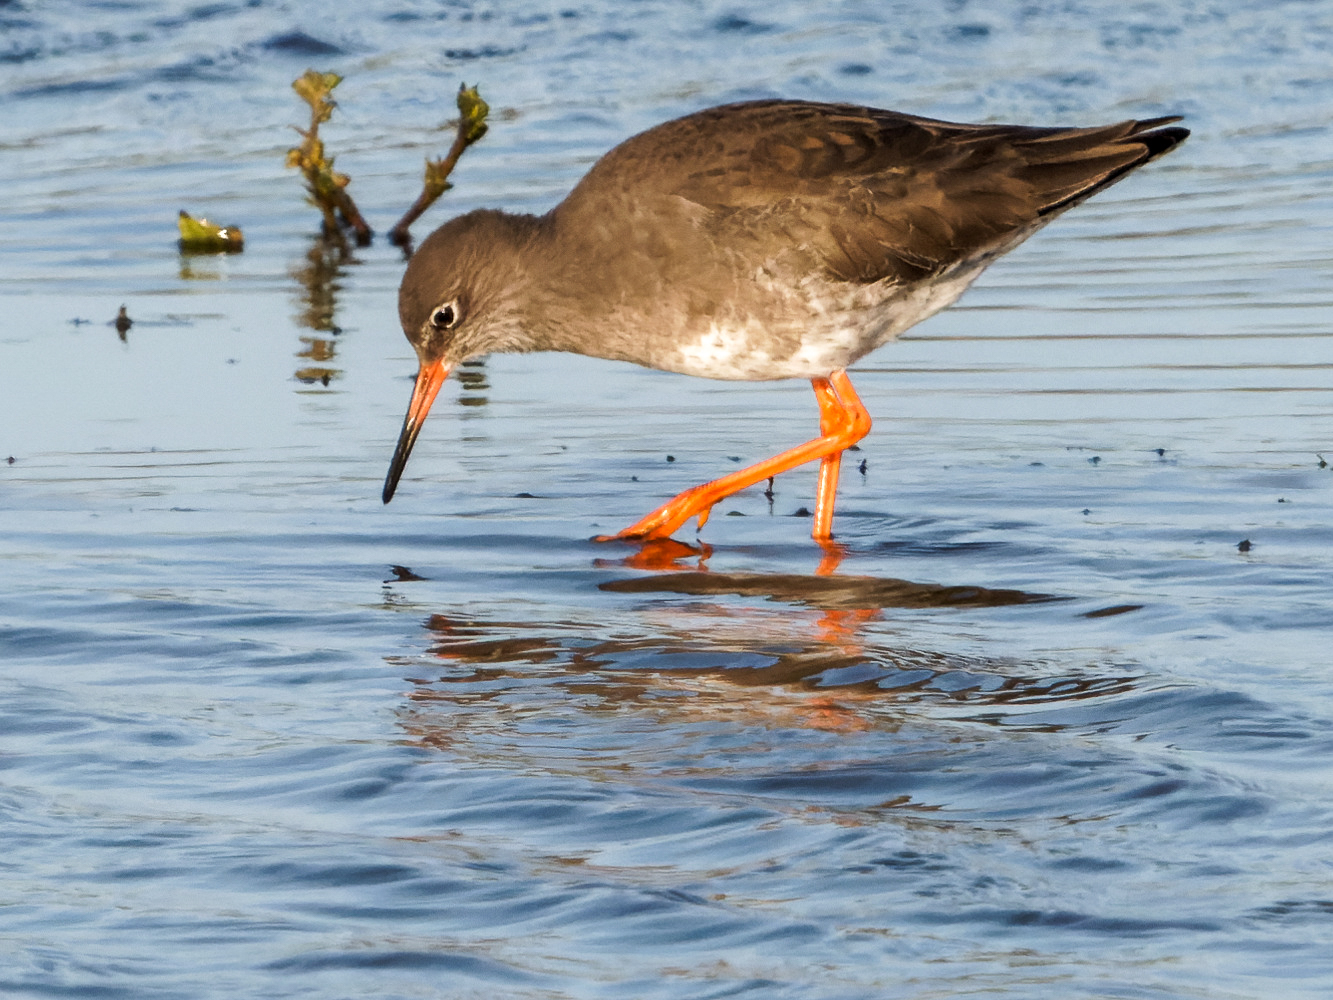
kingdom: Animalia
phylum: Chordata
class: Aves
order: Charadriiformes
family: Scolopacidae
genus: Tringa
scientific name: Tringa totanus
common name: Common redshank
